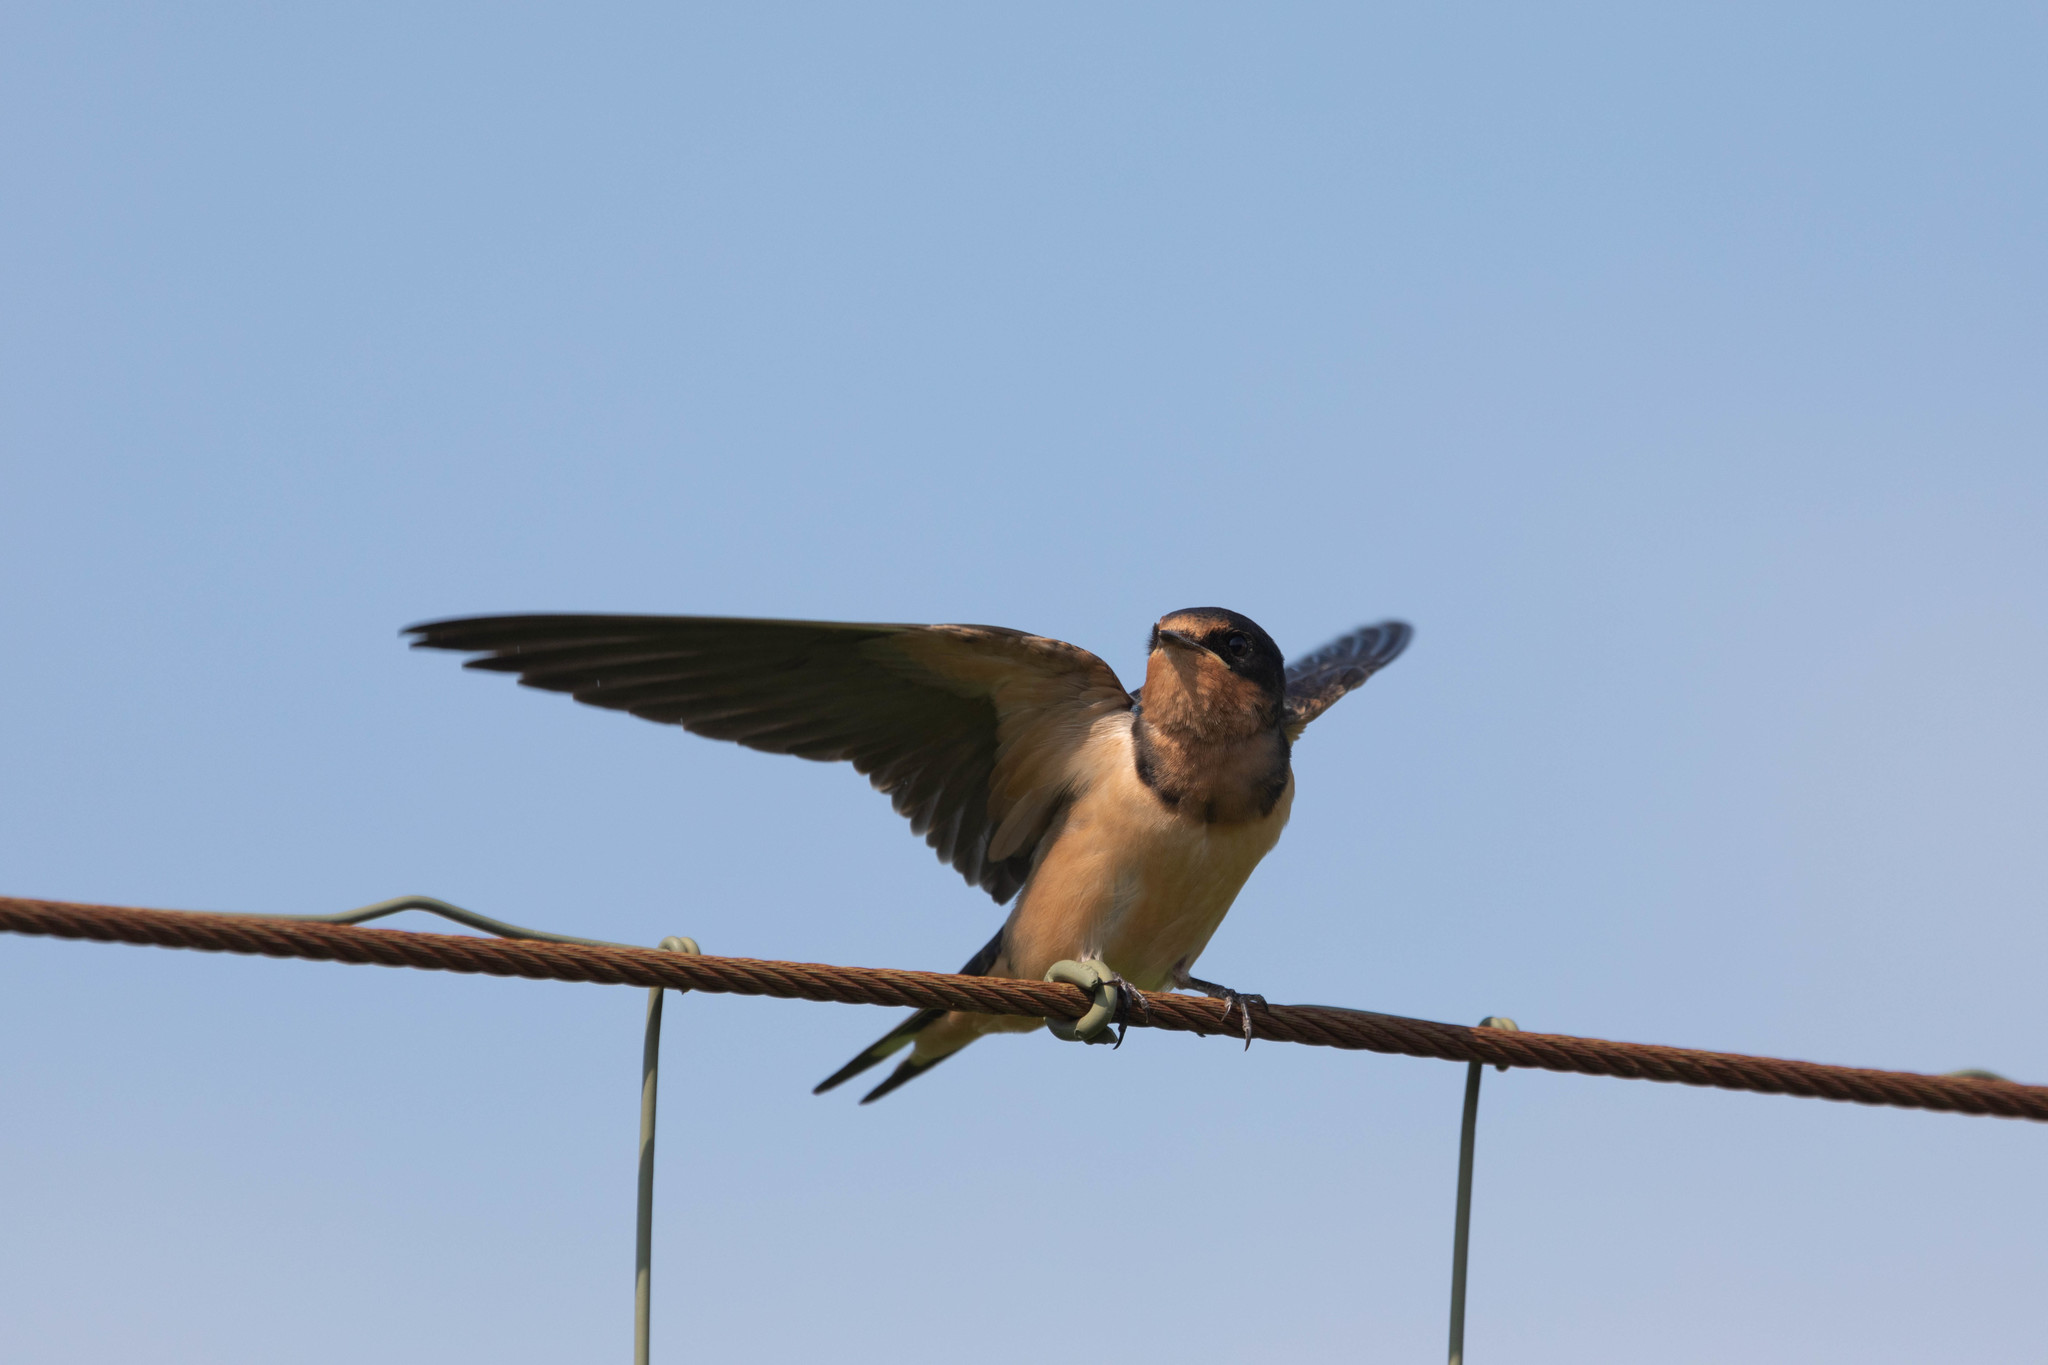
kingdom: Animalia
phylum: Chordata
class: Aves
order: Passeriformes
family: Hirundinidae
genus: Hirundo
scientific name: Hirundo rustica
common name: Barn swallow
